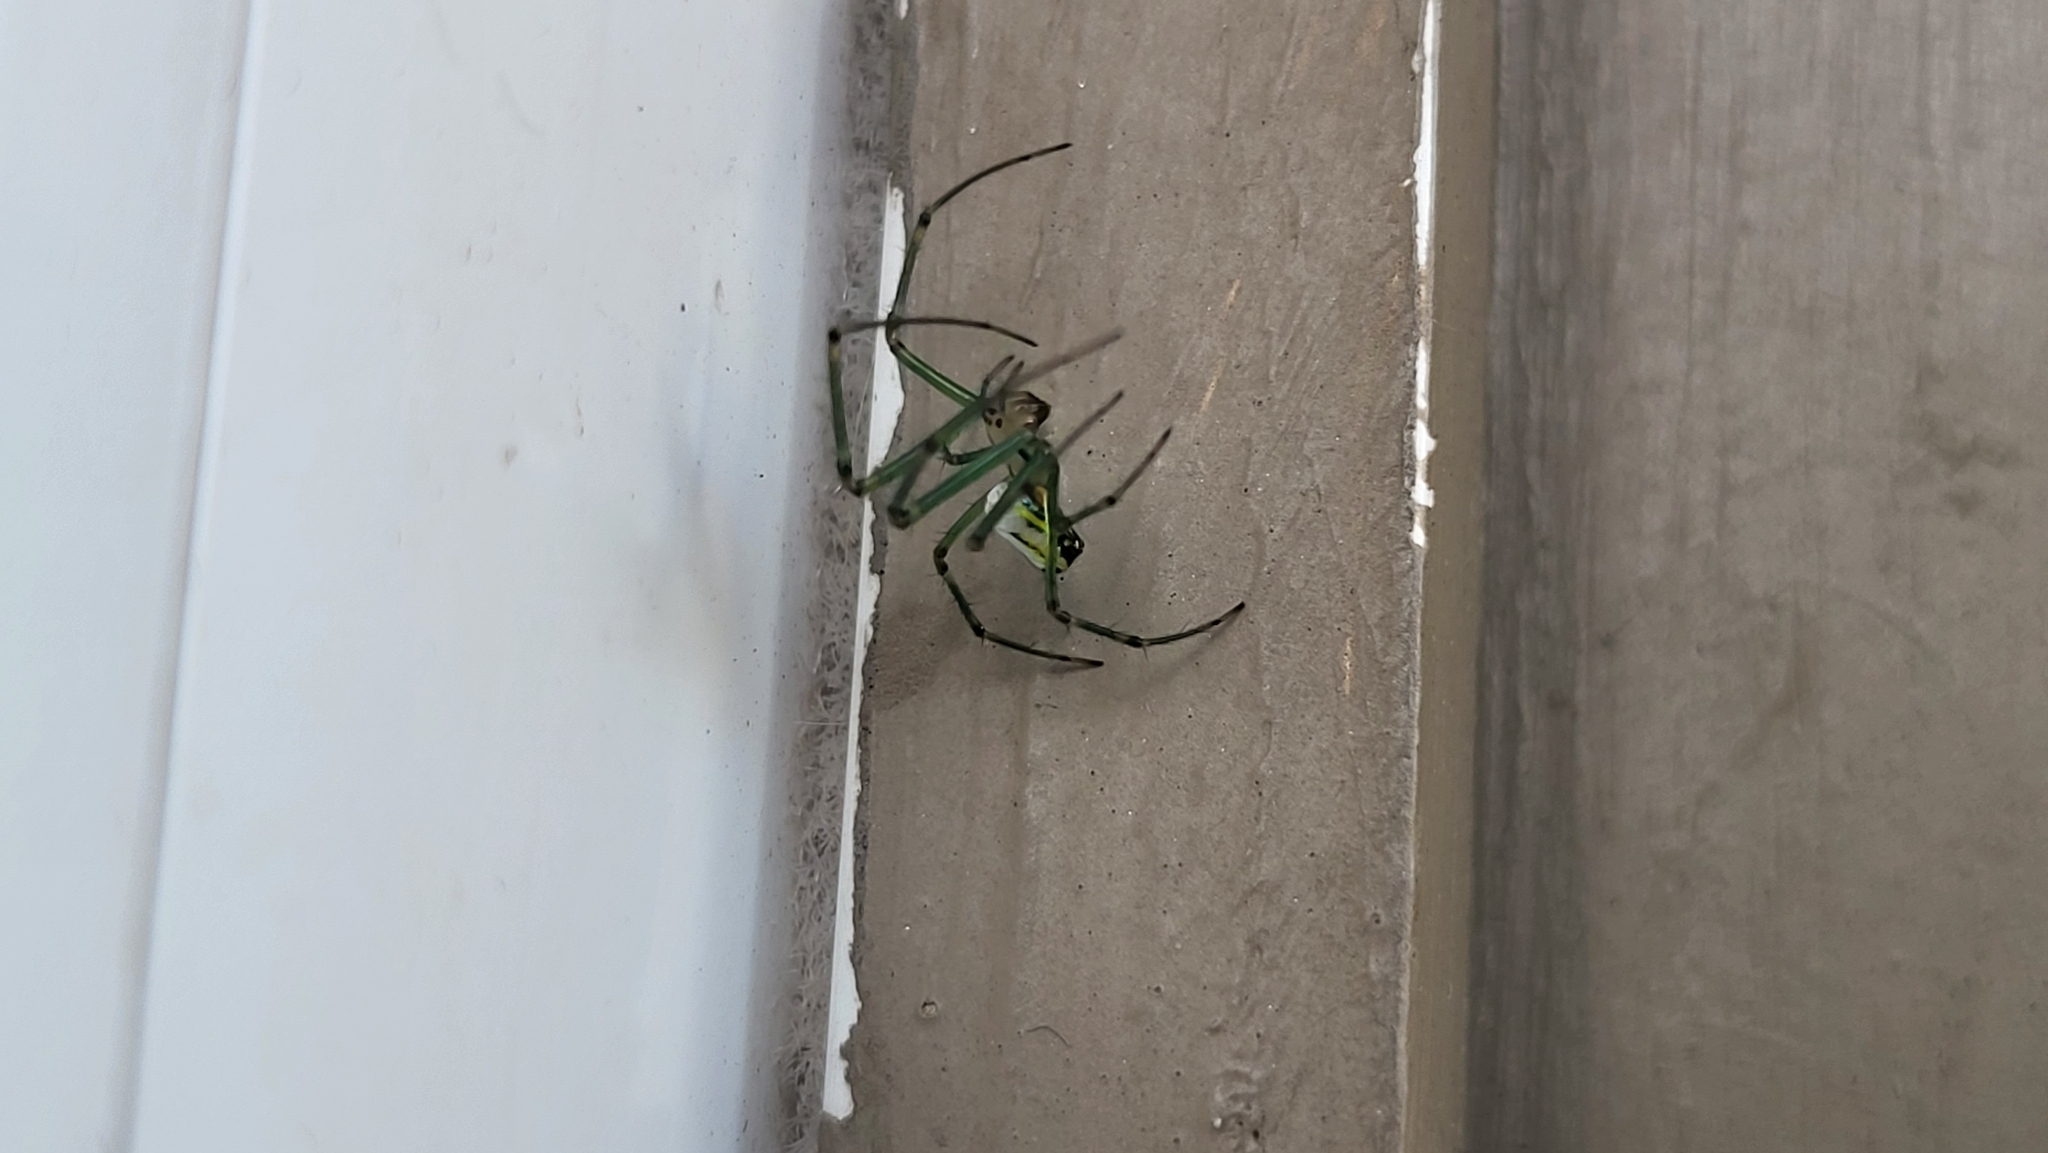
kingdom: Animalia
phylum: Arthropoda
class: Arachnida
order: Araneae
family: Tetragnathidae
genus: Leucauge
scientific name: Leucauge venusta
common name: Longjawed orb weavers
